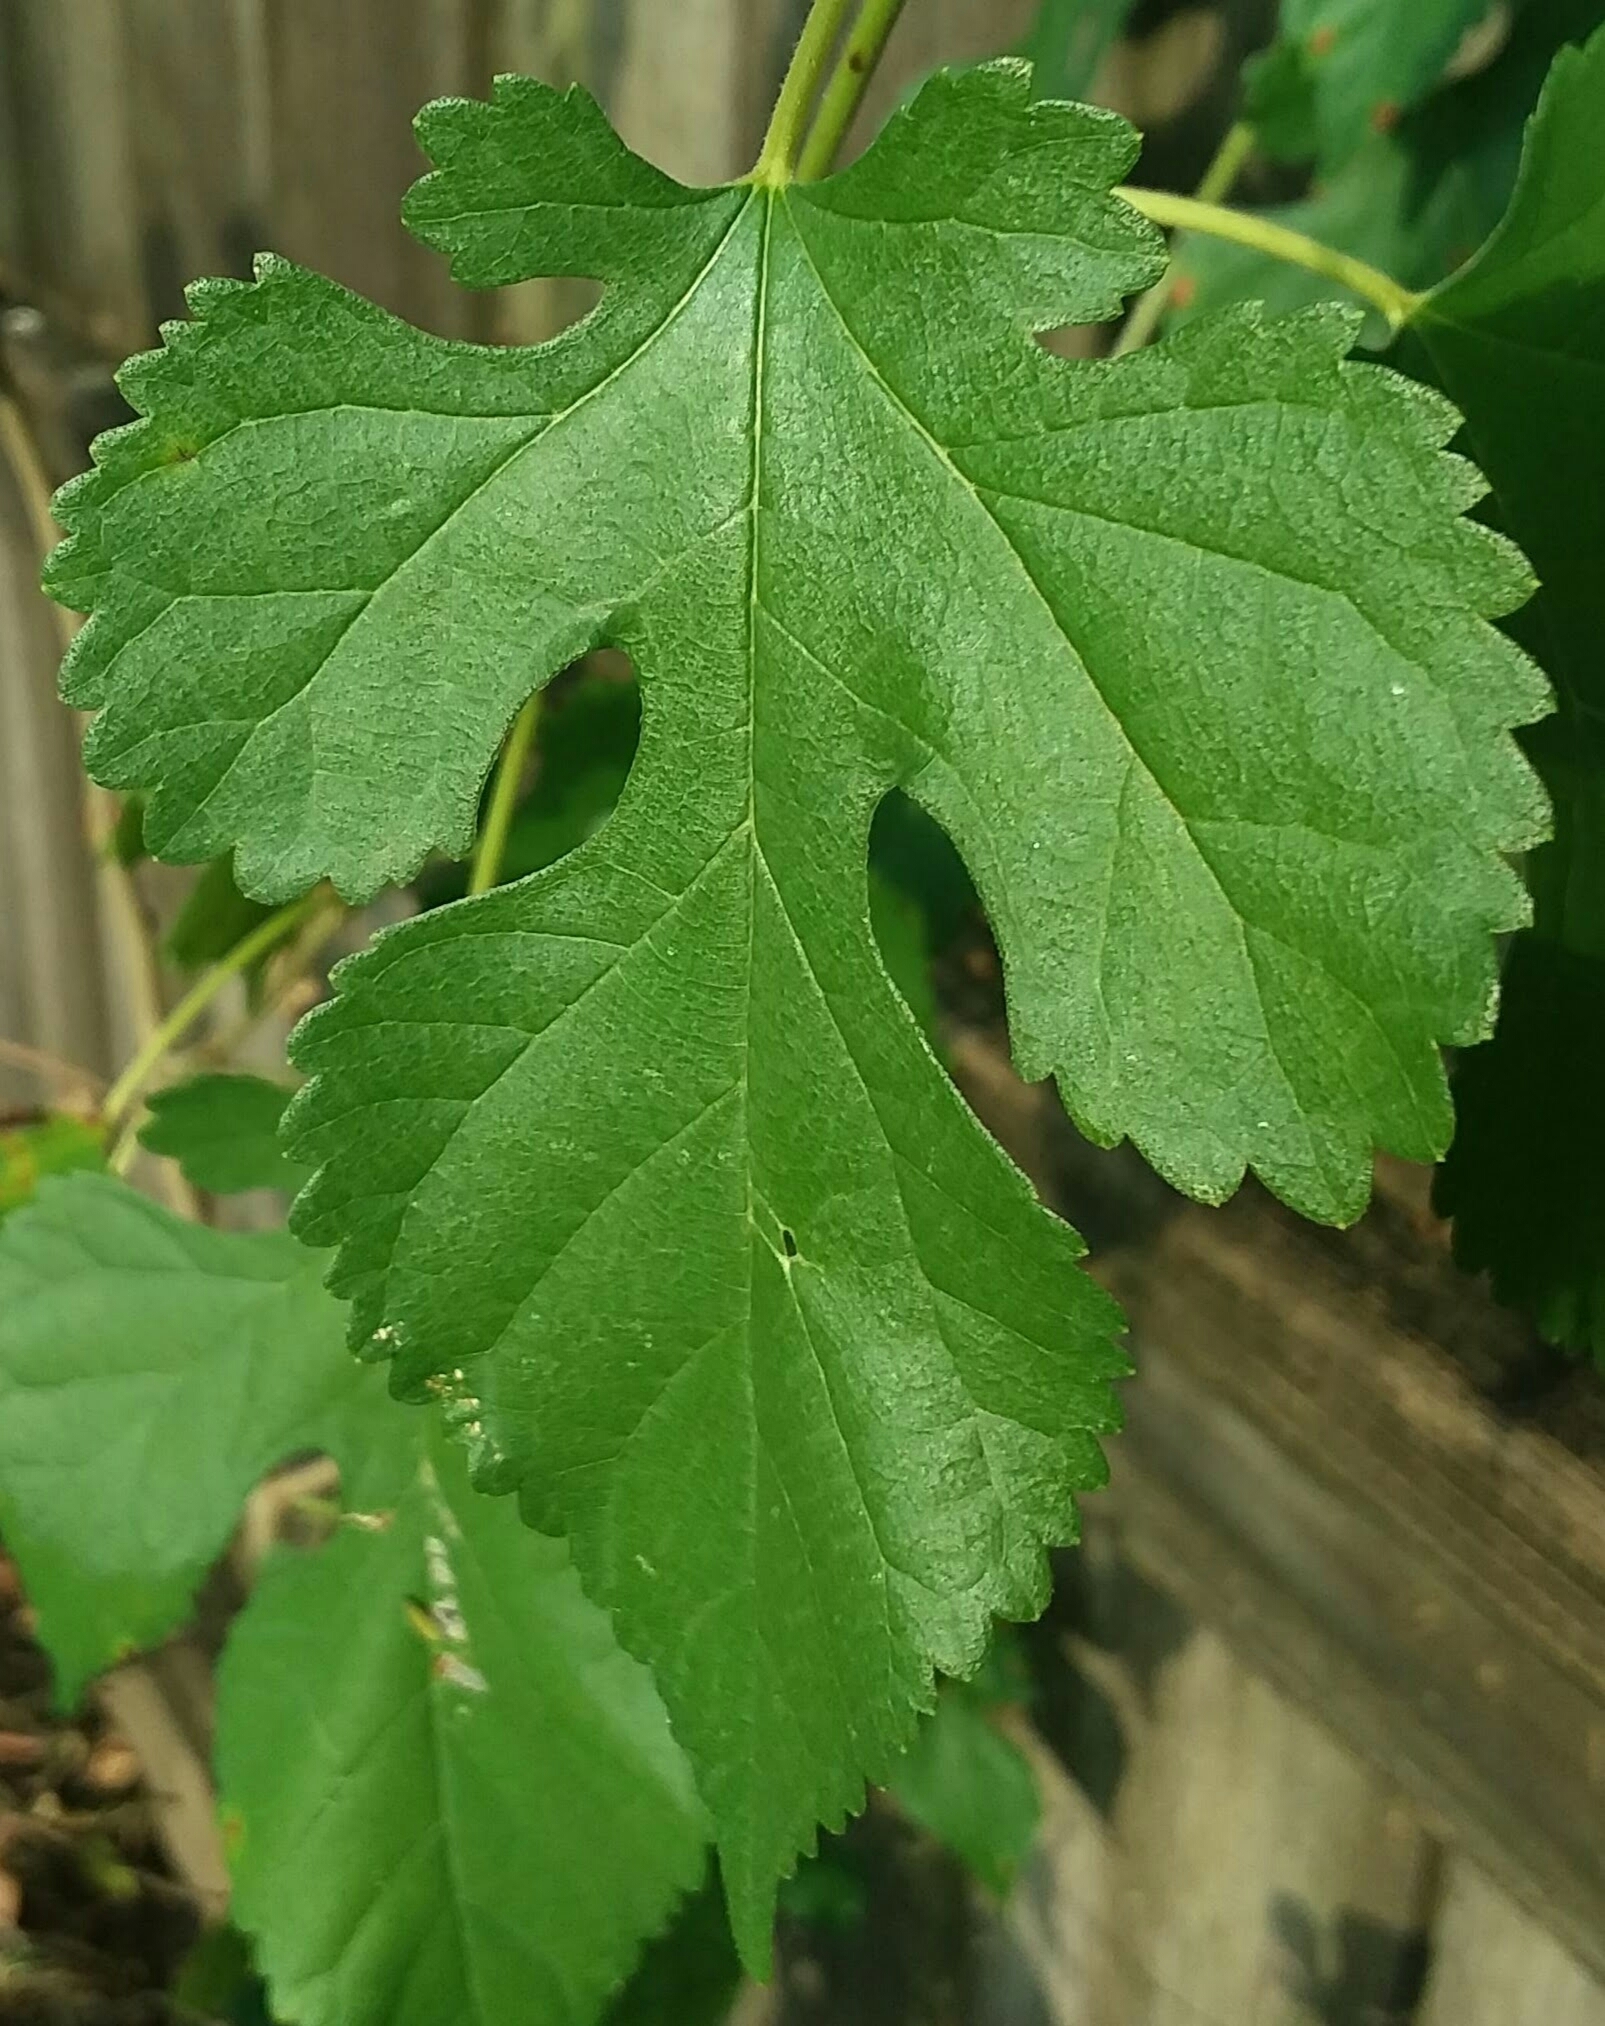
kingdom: Plantae
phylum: Tracheophyta
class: Magnoliopsida
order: Rosales
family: Moraceae
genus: Morus
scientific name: Morus alba
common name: White mulberry
